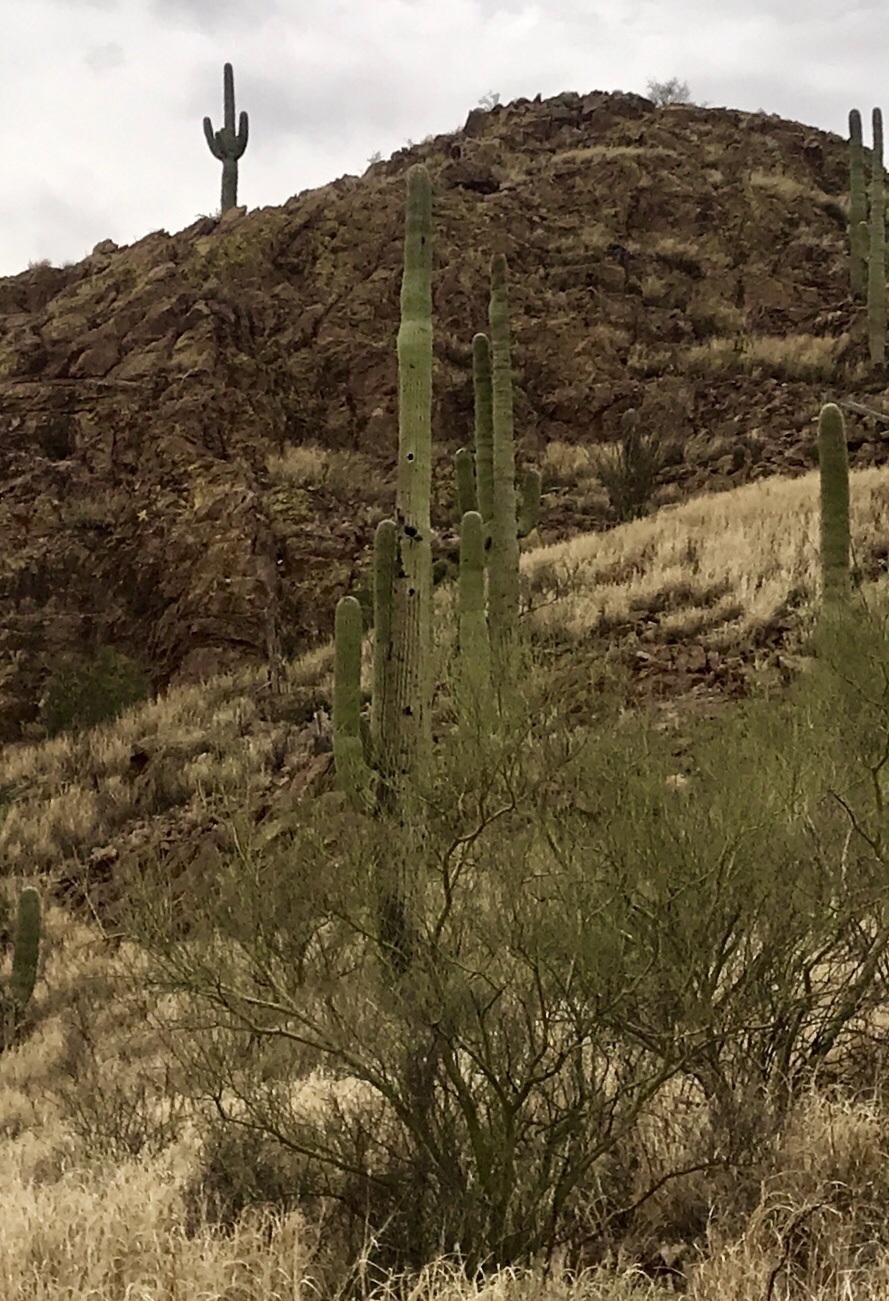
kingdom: Plantae
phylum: Tracheophyta
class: Magnoliopsida
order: Caryophyllales
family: Cactaceae
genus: Carnegiea
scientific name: Carnegiea gigantea
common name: Saguaro
